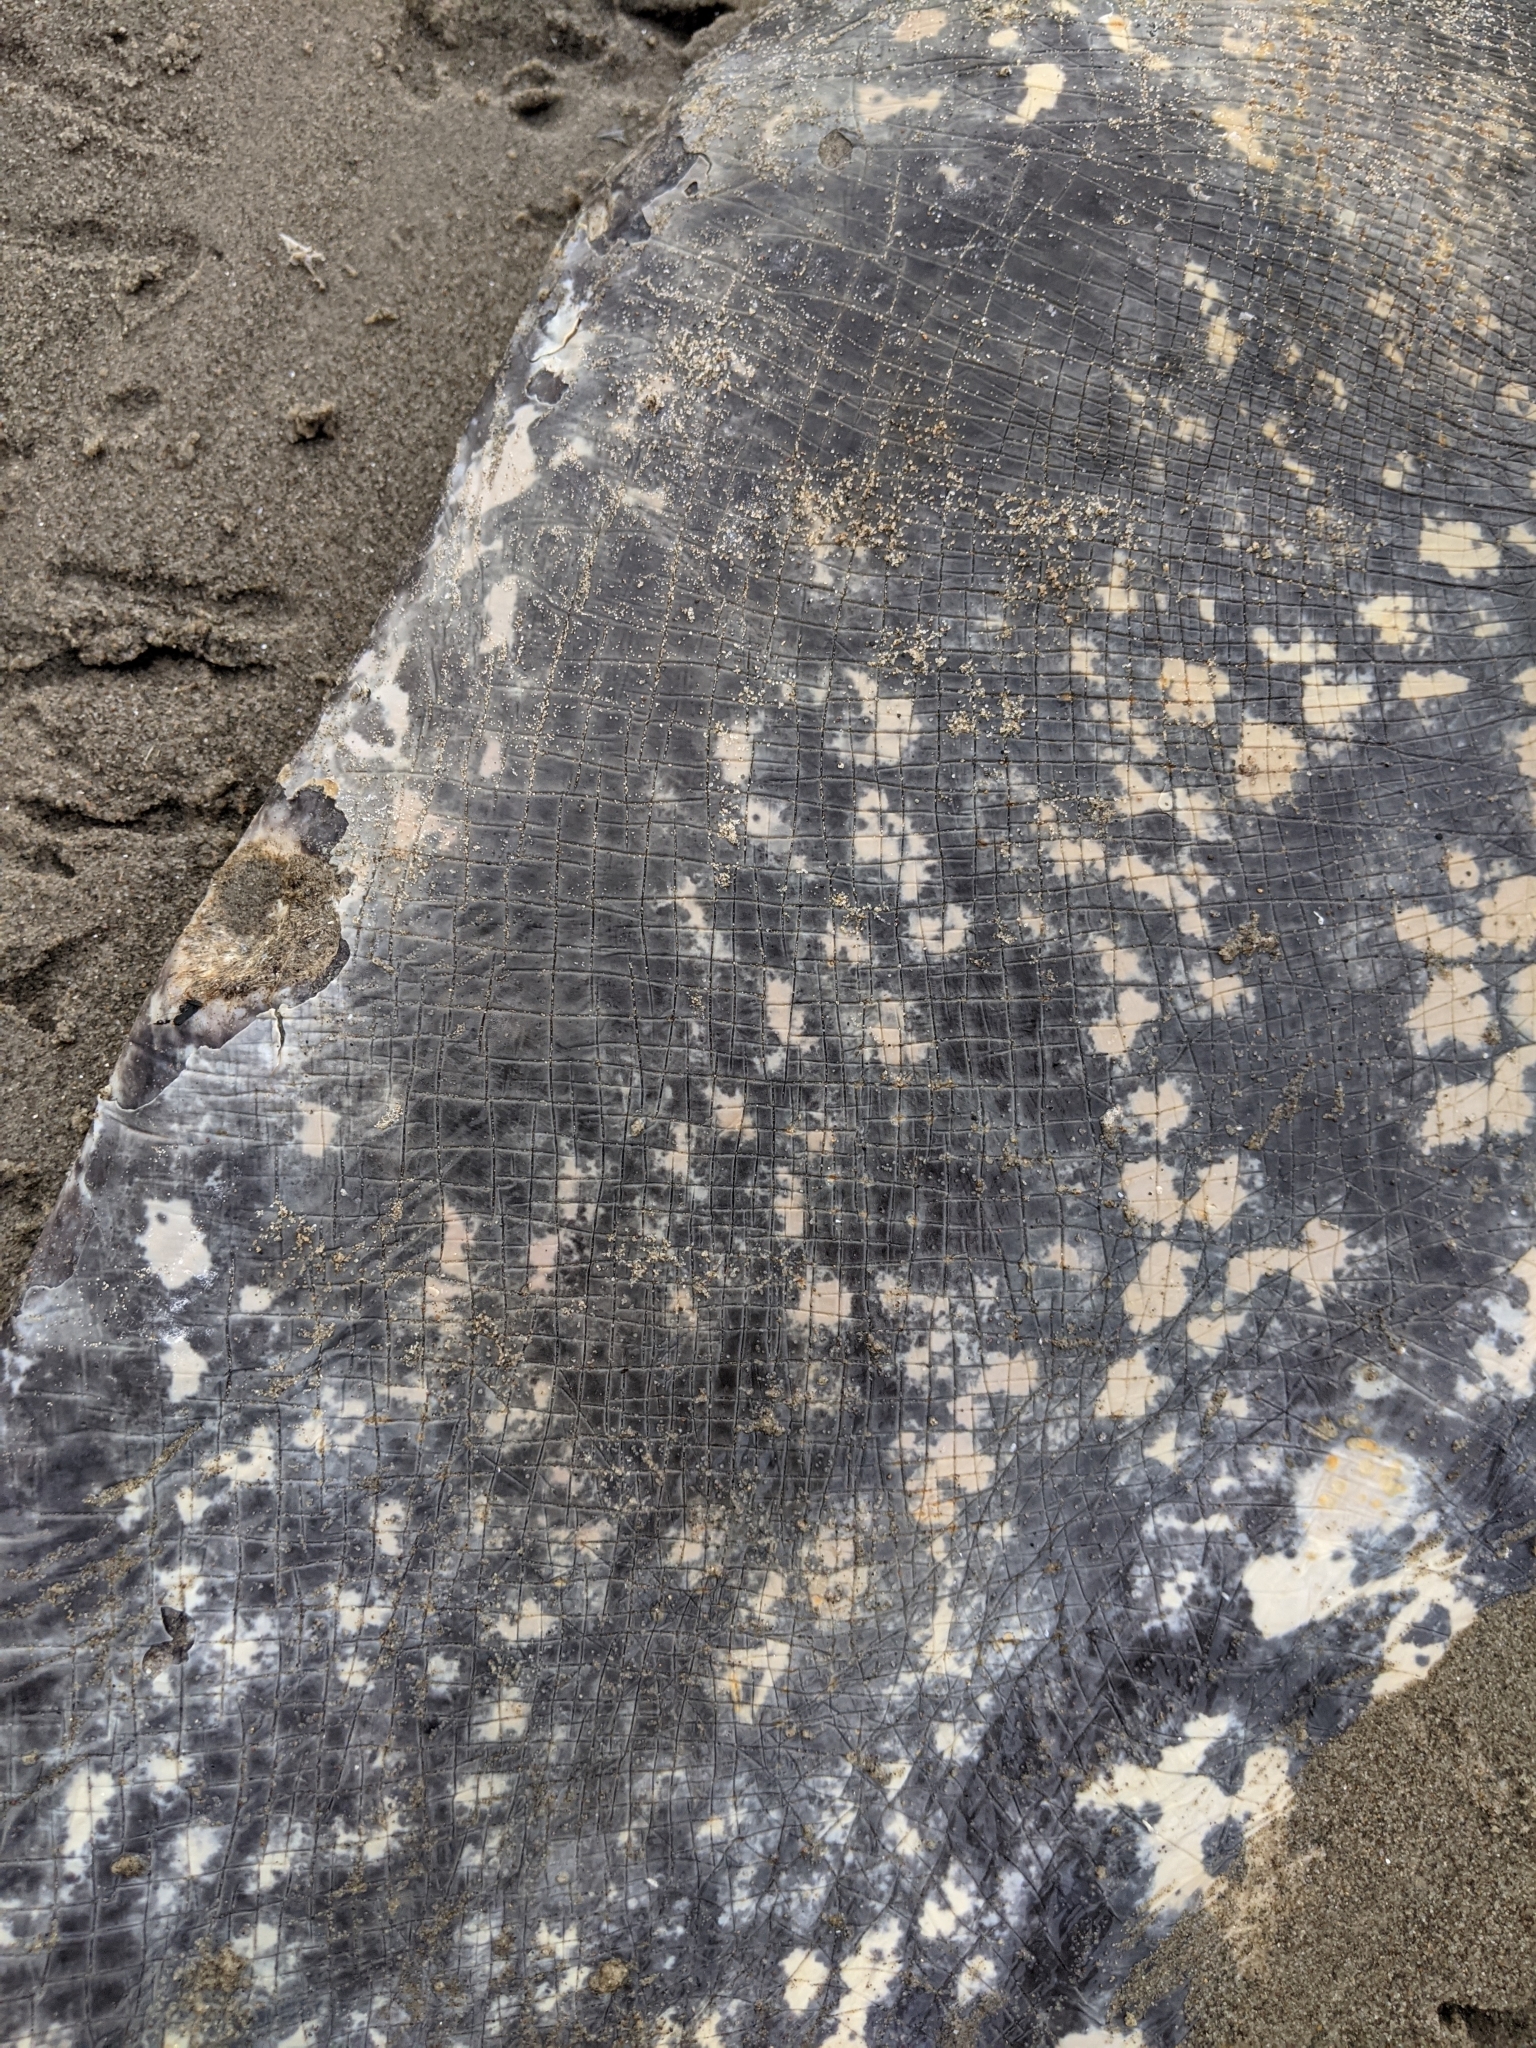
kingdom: Animalia
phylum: Chordata
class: Testudines
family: Dermochelyidae
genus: Dermochelys
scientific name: Dermochelys coriacea
